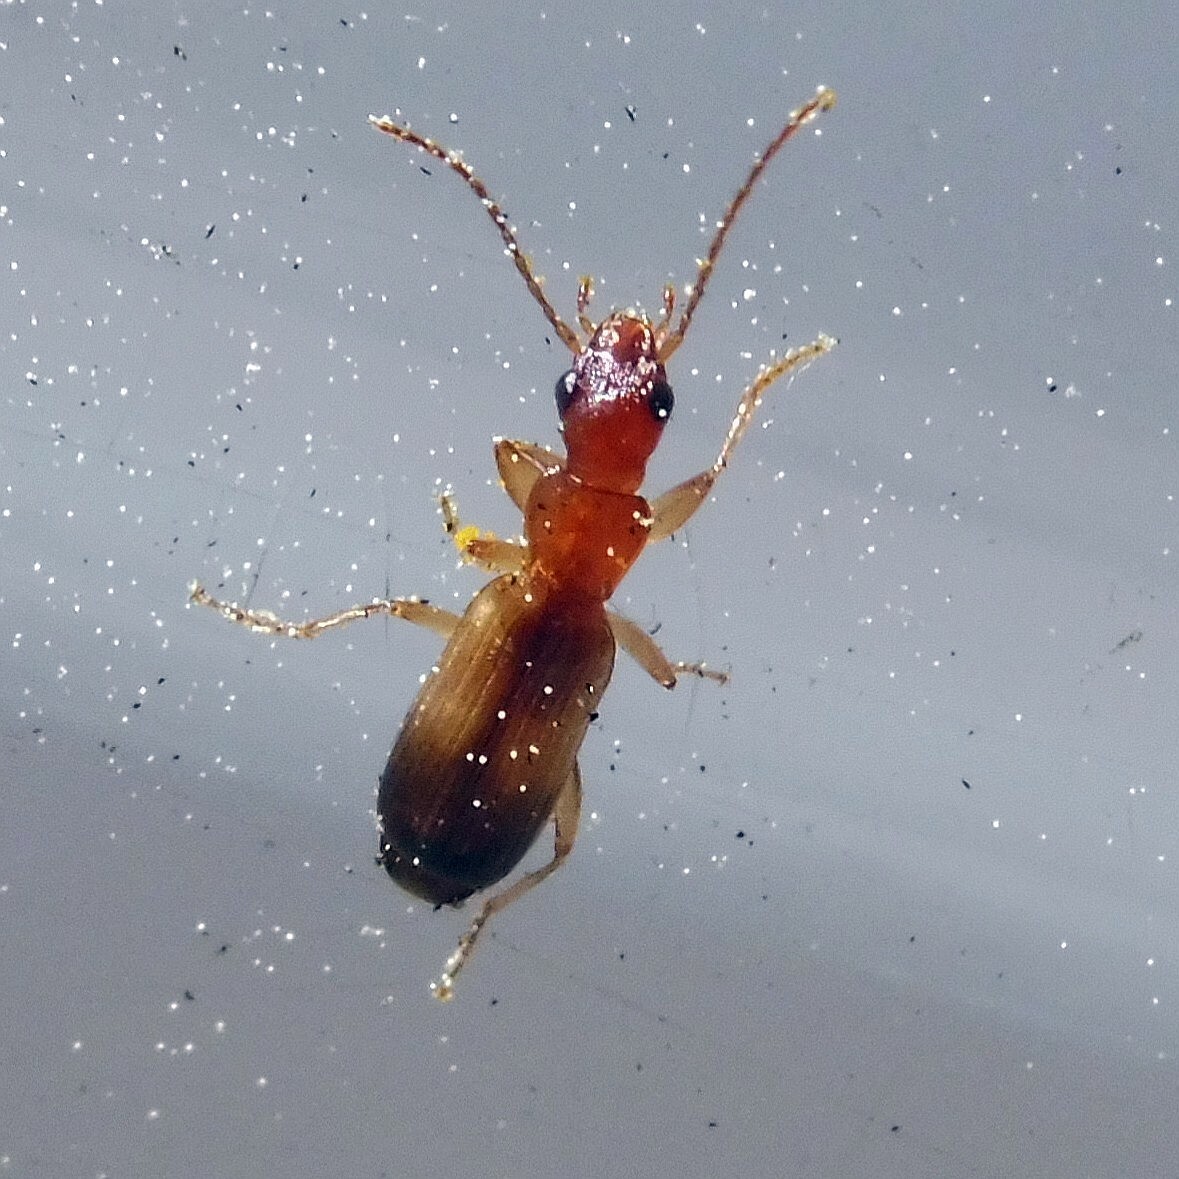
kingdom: Animalia
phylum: Arthropoda
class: Insecta
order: Coleoptera
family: Carabidae
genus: Paradromius
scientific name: Paradromius linearis
